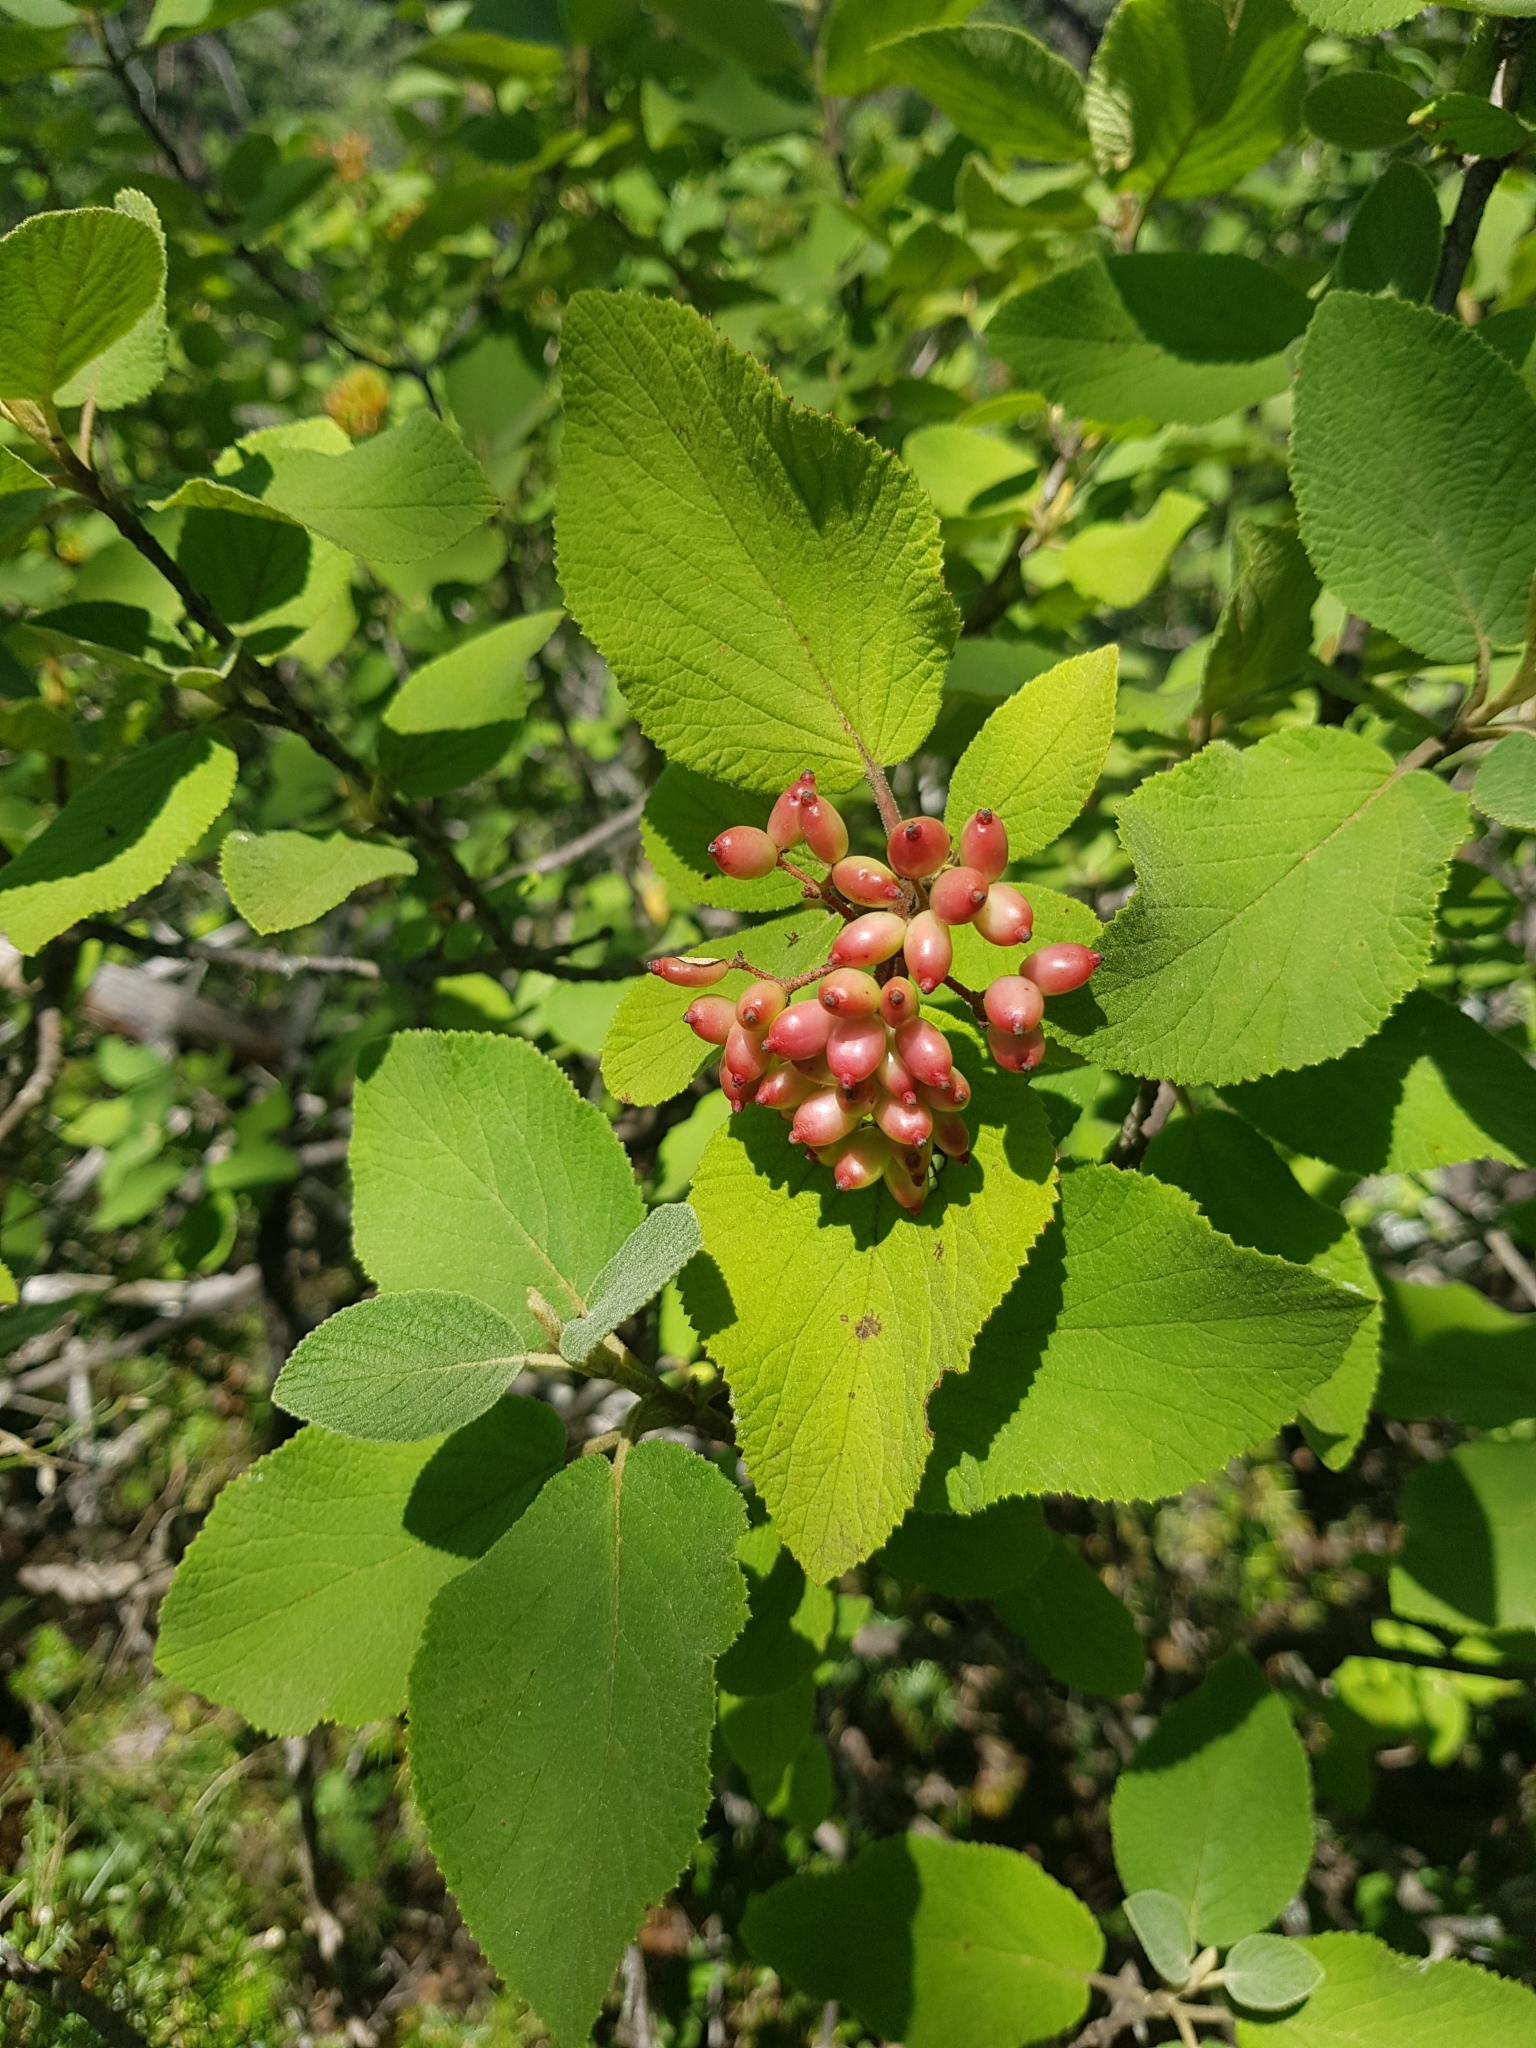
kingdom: Plantae
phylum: Tracheophyta
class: Magnoliopsida
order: Dipsacales
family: Viburnaceae
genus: Viburnum
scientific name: Viburnum lantana
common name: Wayfaring tree
